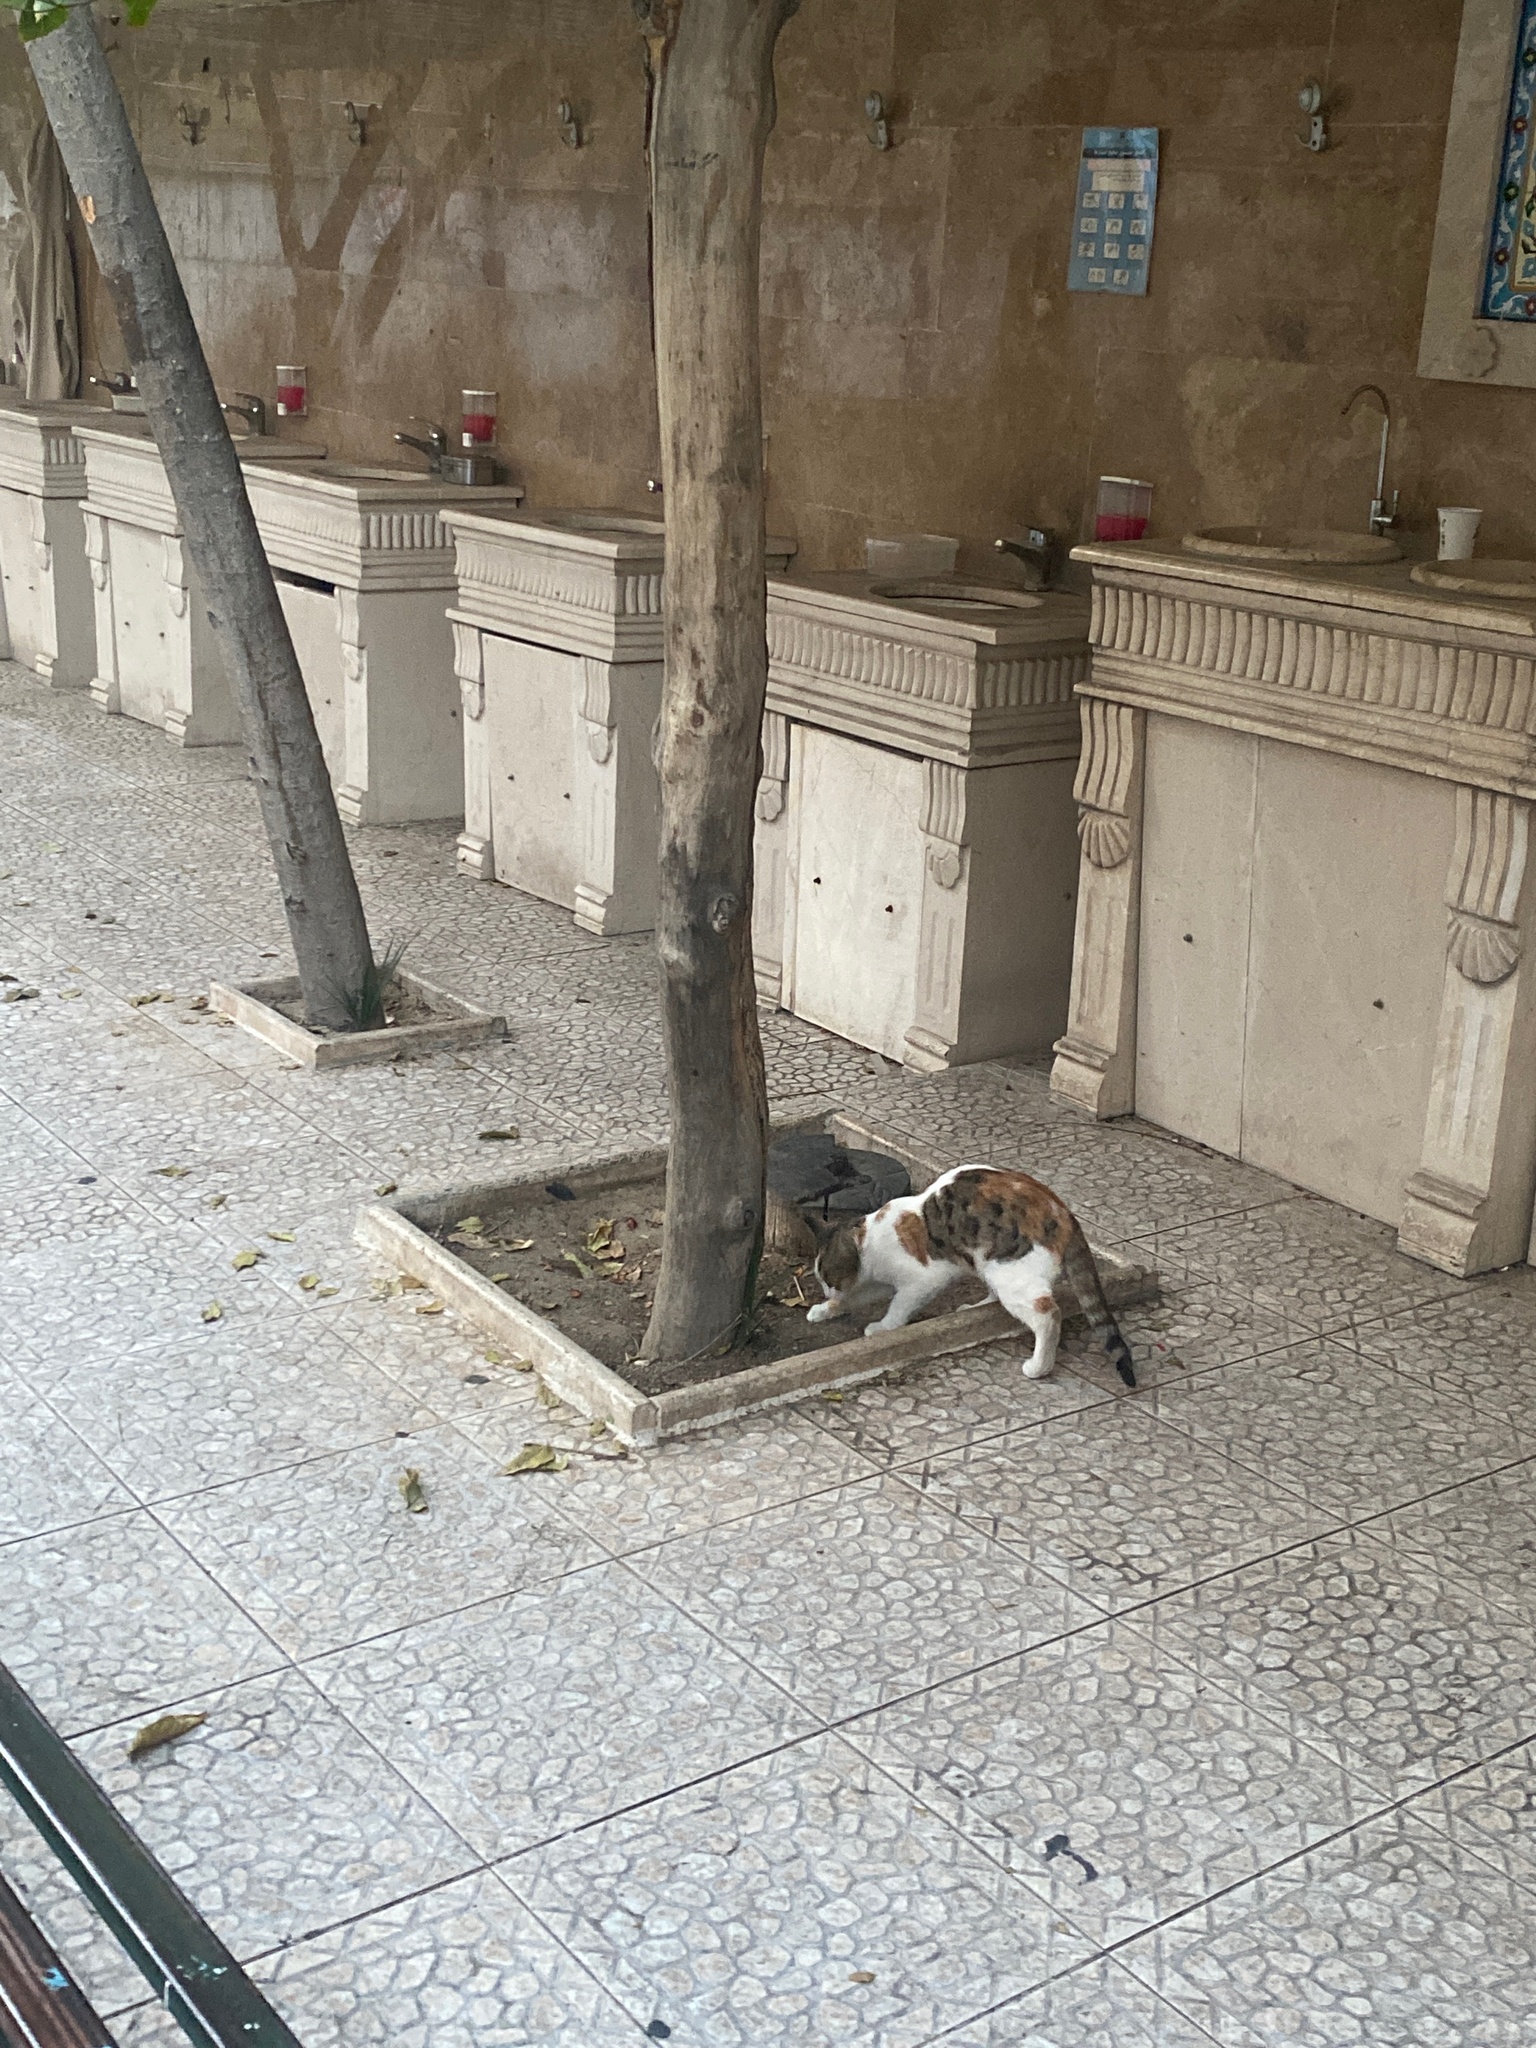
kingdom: Animalia
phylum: Chordata
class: Mammalia
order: Carnivora
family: Felidae
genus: Felis
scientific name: Felis catus
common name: Domestic cat
